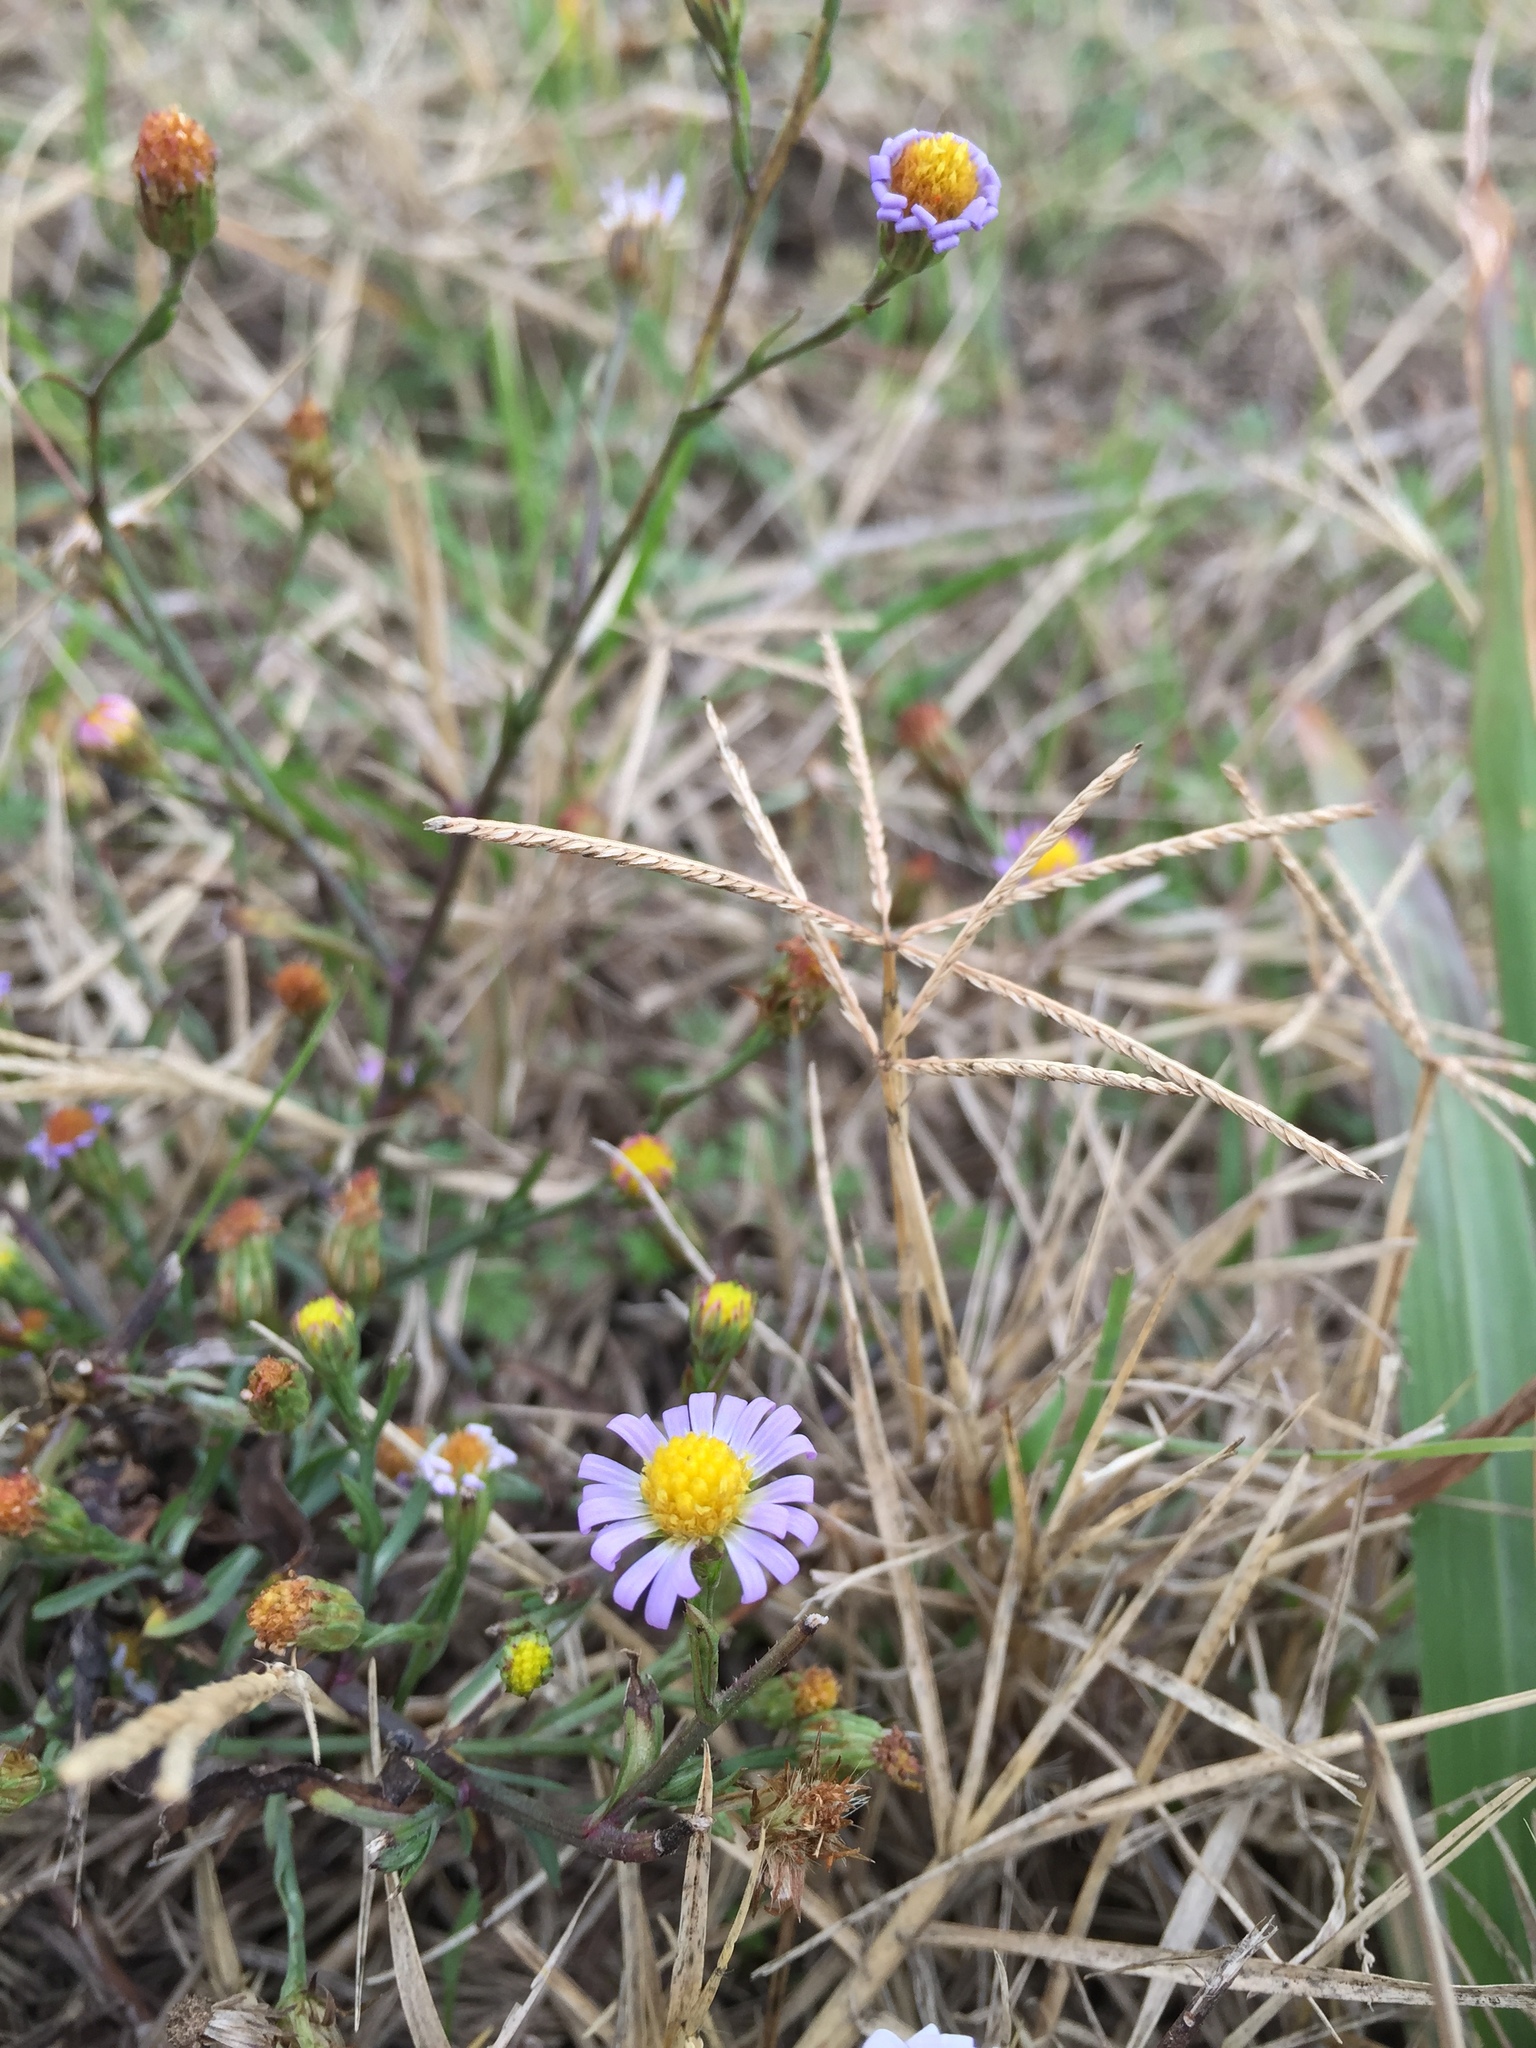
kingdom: Plantae
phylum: Tracheophyta
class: Magnoliopsida
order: Asterales
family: Asteraceae
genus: Symphyotrichum
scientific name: Symphyotrichum divaricatum
